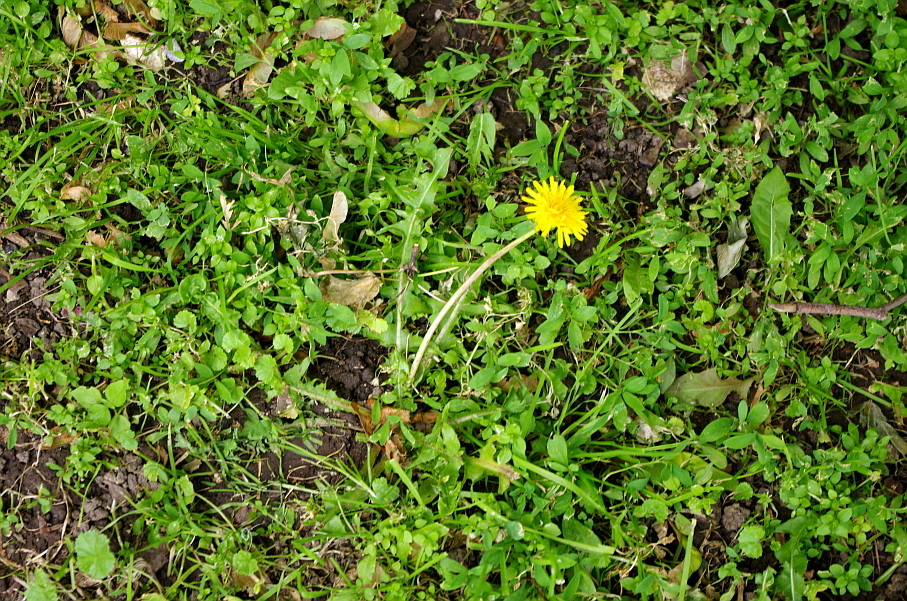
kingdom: Plantae
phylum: Tracheophyta
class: Magnoliopsida
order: Asterales
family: Asteraceae
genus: Taraxacum
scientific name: Taraxacum officinale
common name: Common dandelion
